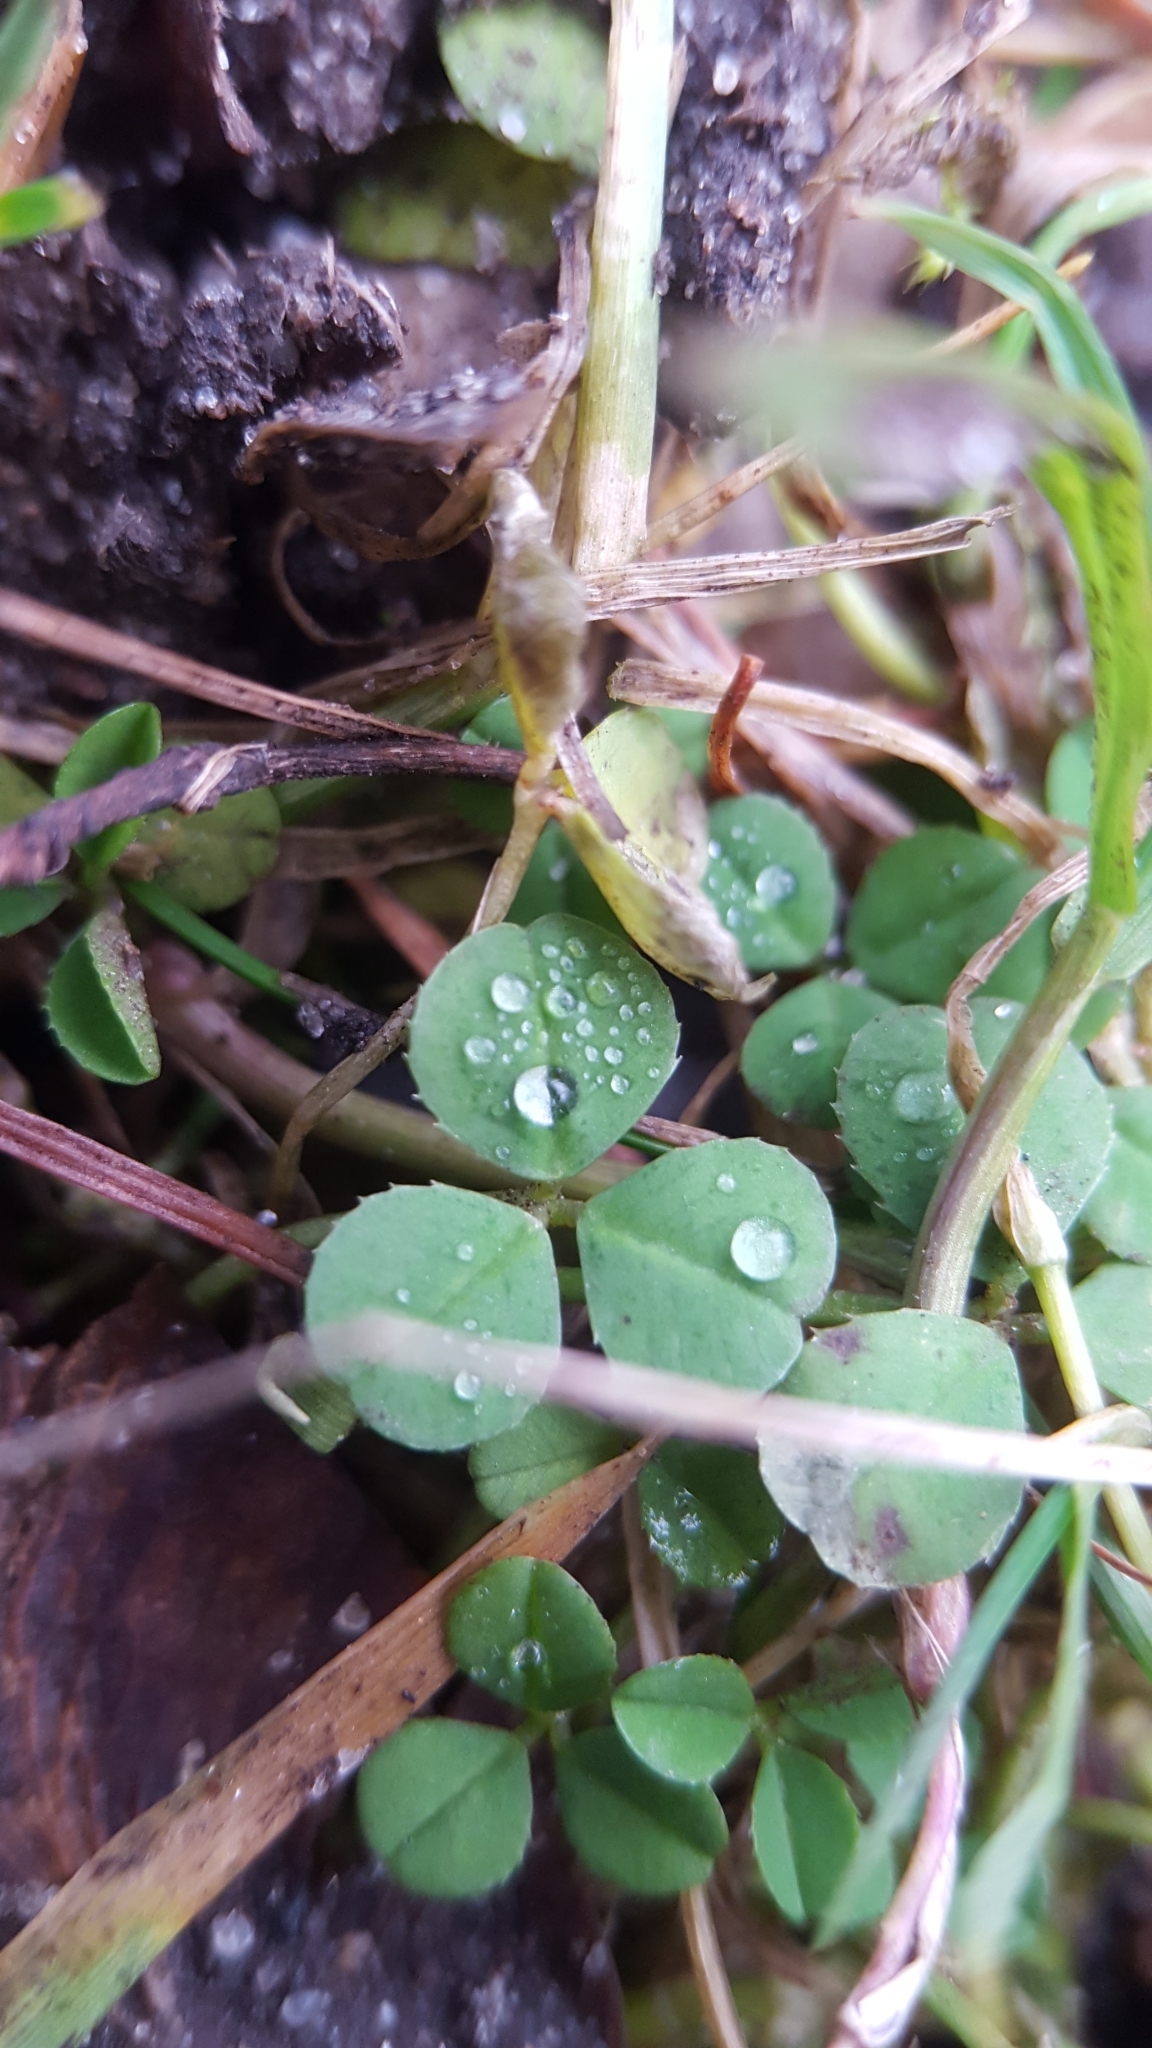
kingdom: Plantae
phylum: Tracheophyta
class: Magnoliopsida
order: Fabales
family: Fabaceae
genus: Trifolium
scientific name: Trifolium repens
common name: White clover
